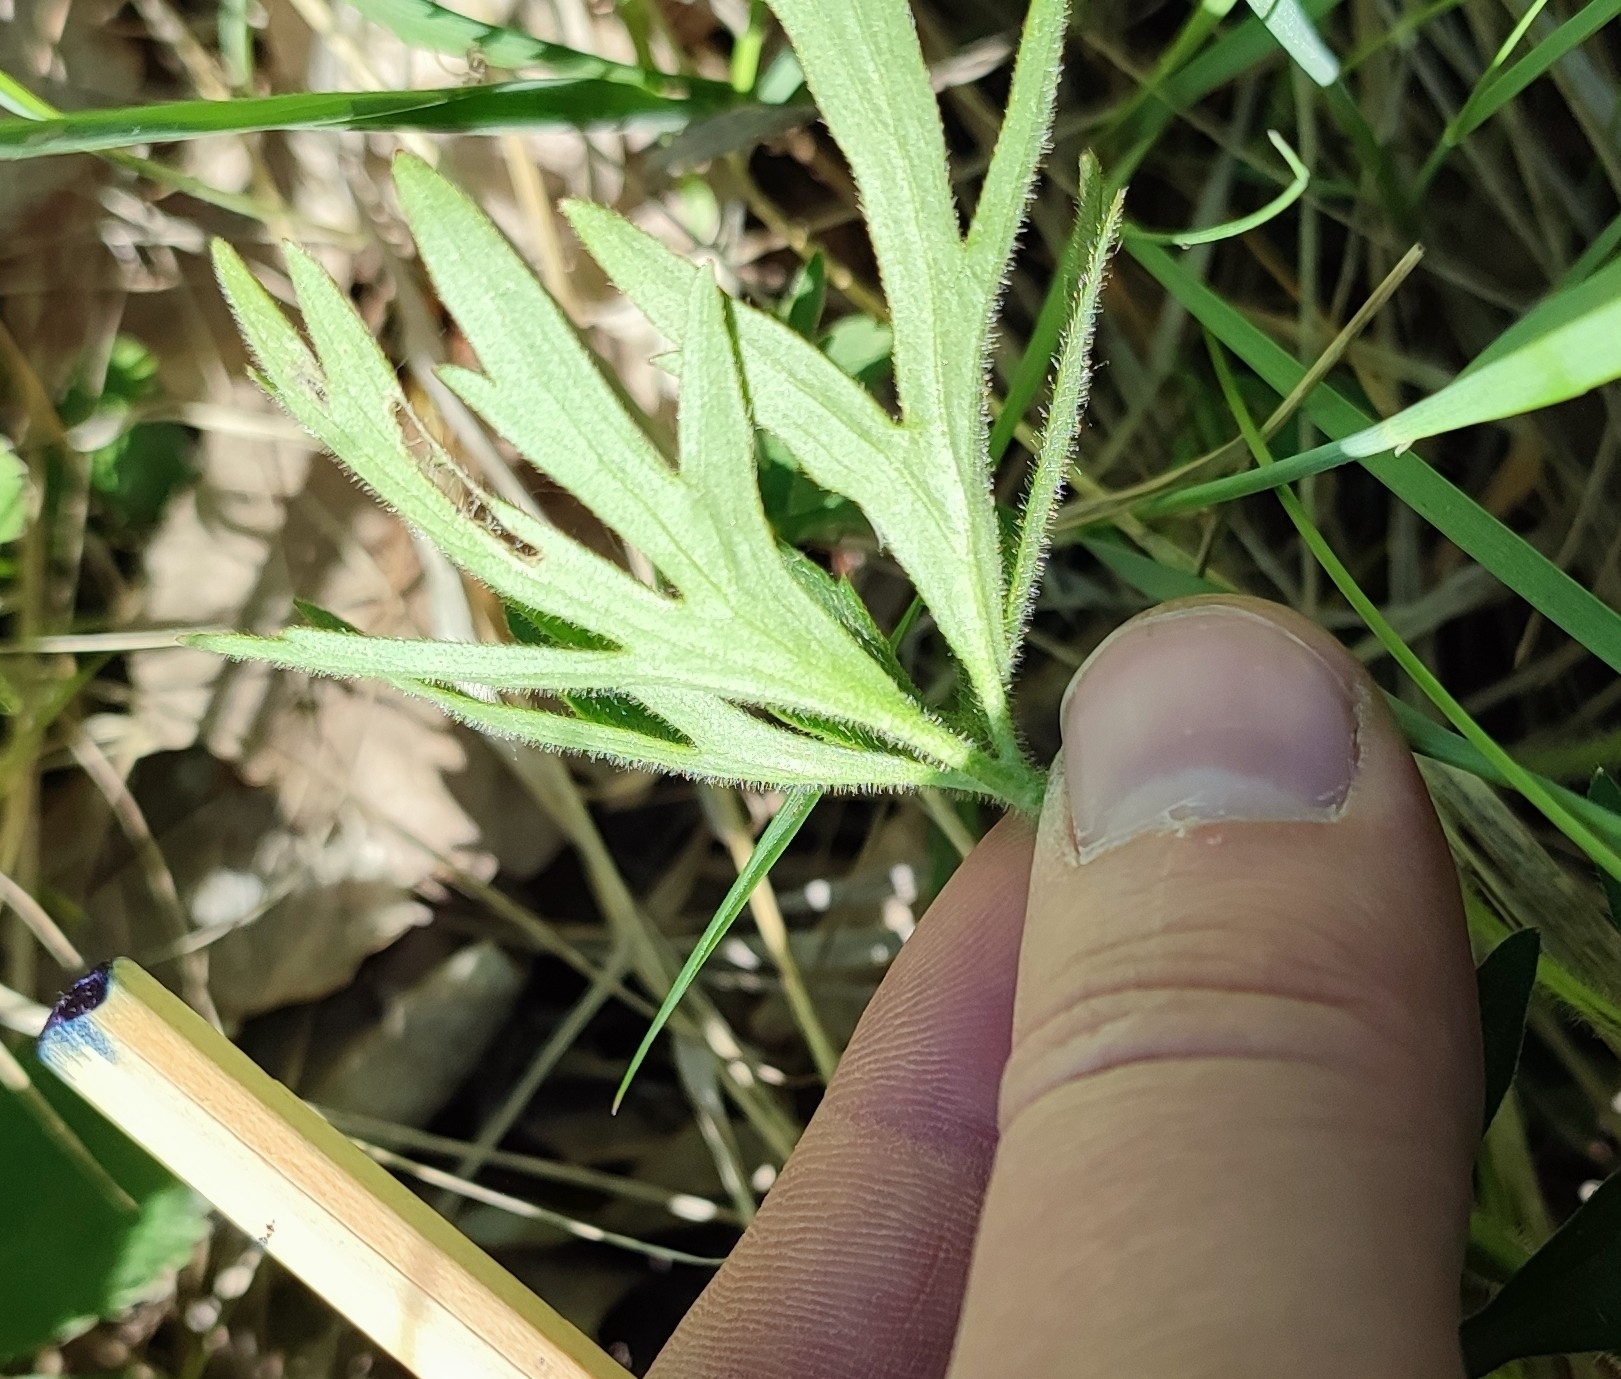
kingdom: Plantae
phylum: Tracheophyta
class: Magnoliopsida
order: Ranunculales
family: Ranunculaceae
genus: Ranunculus
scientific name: Ranunculus polyanthemos
